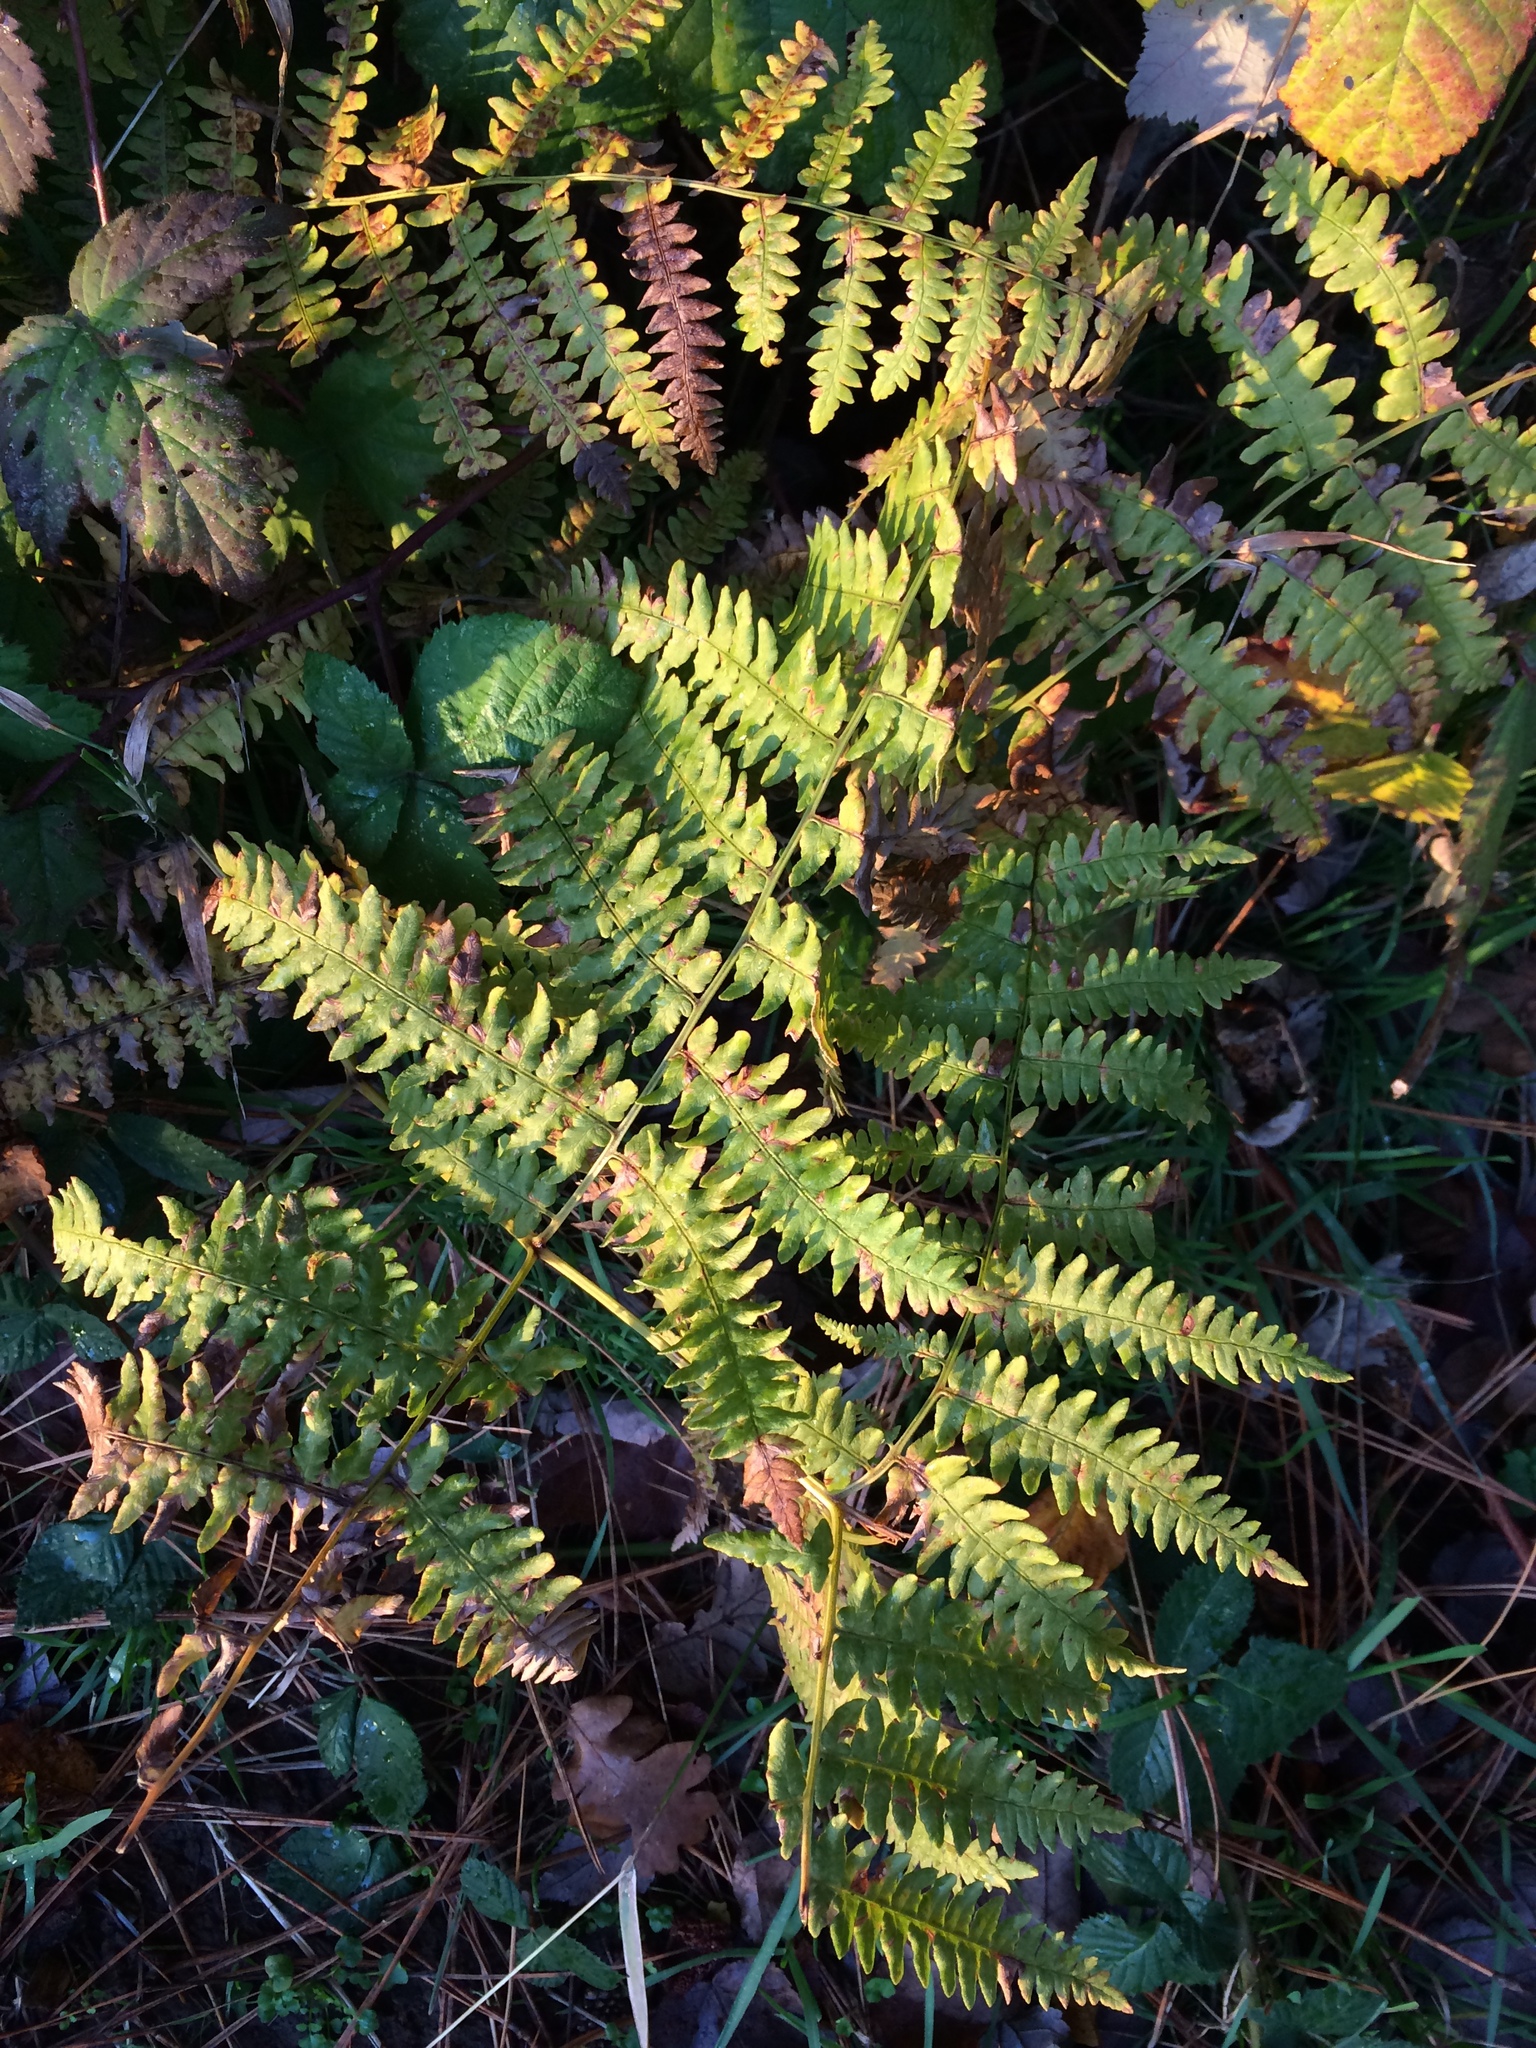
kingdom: Plantae
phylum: Tracheophyta
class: Polypodiopsida
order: Polypodiales
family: Dennstaedtiaceae
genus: Pteridium
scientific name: Pteridium aquilinum
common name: Bracken
